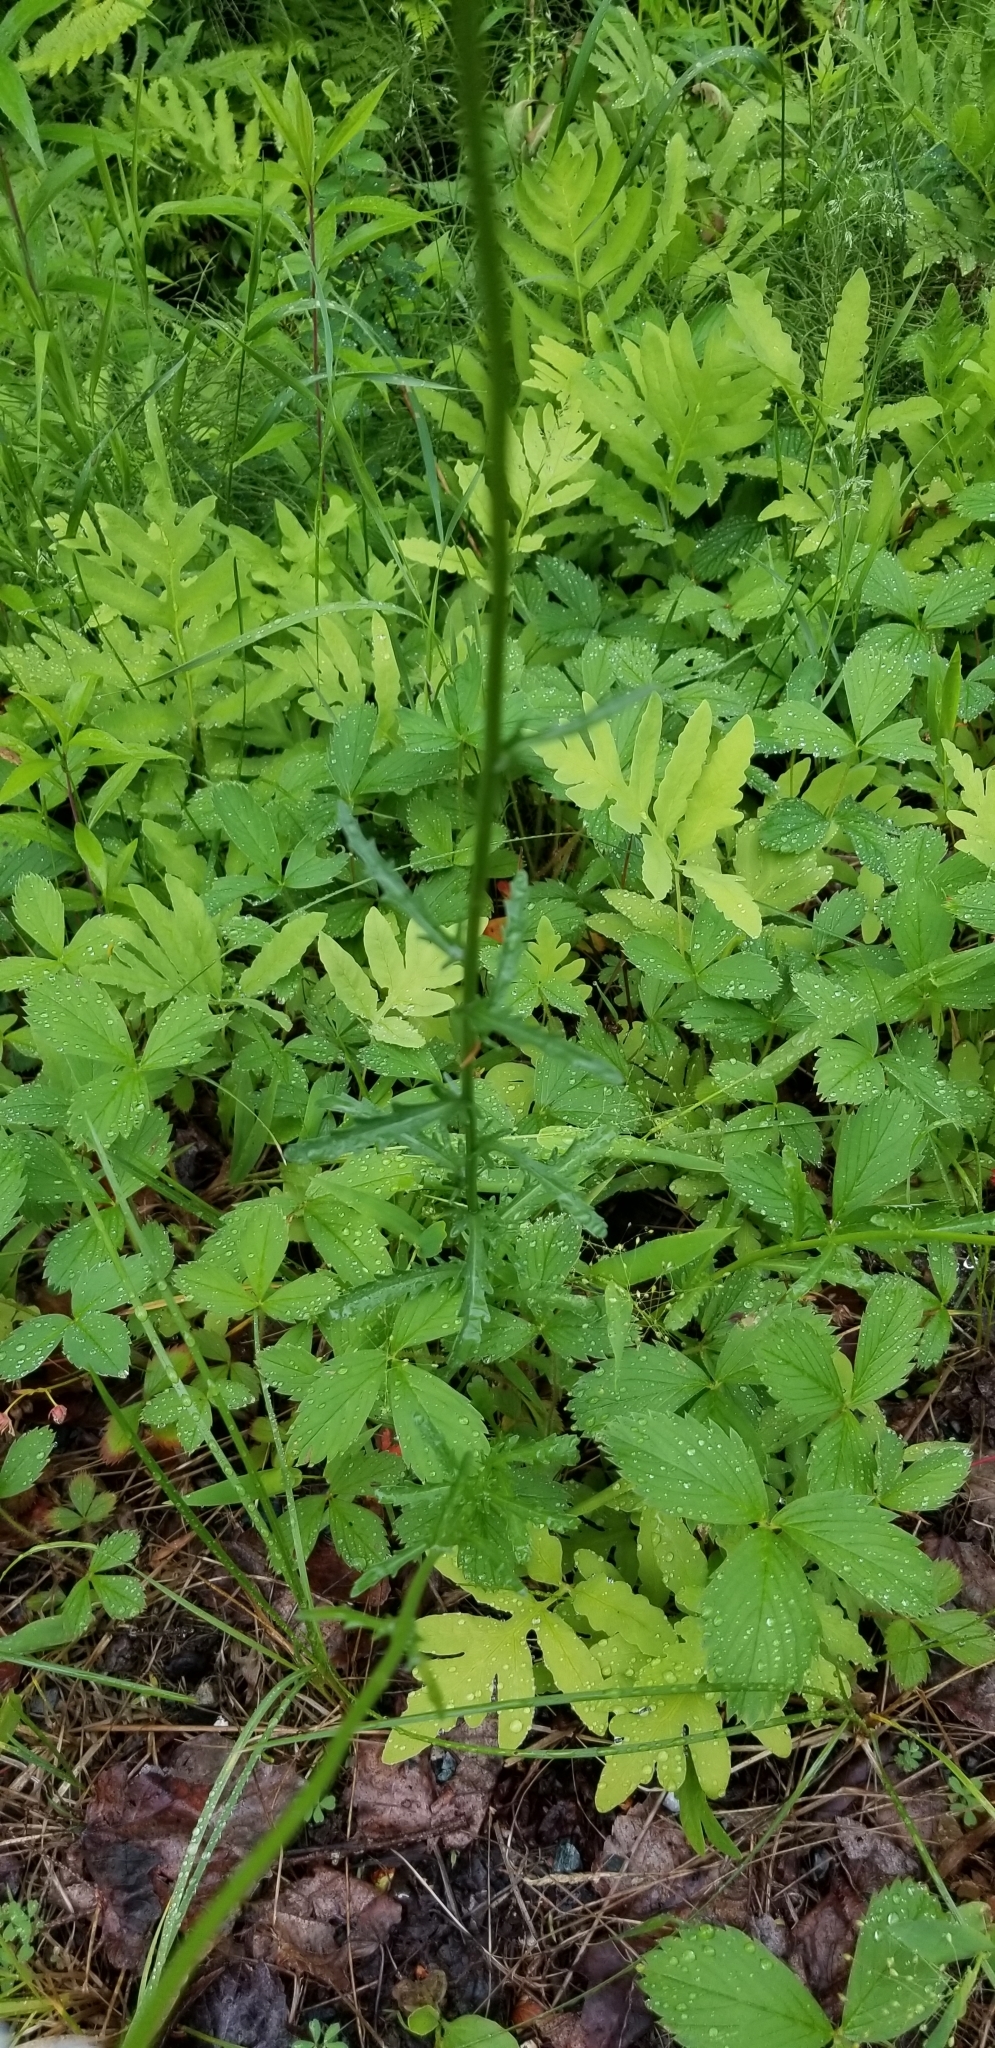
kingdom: Plantae
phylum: Tracheophyta
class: Magnoliopsida
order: Asterales
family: Asteraceae
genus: Leucanthemum
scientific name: Leucanthemum vulgare
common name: Oxeye daisy
